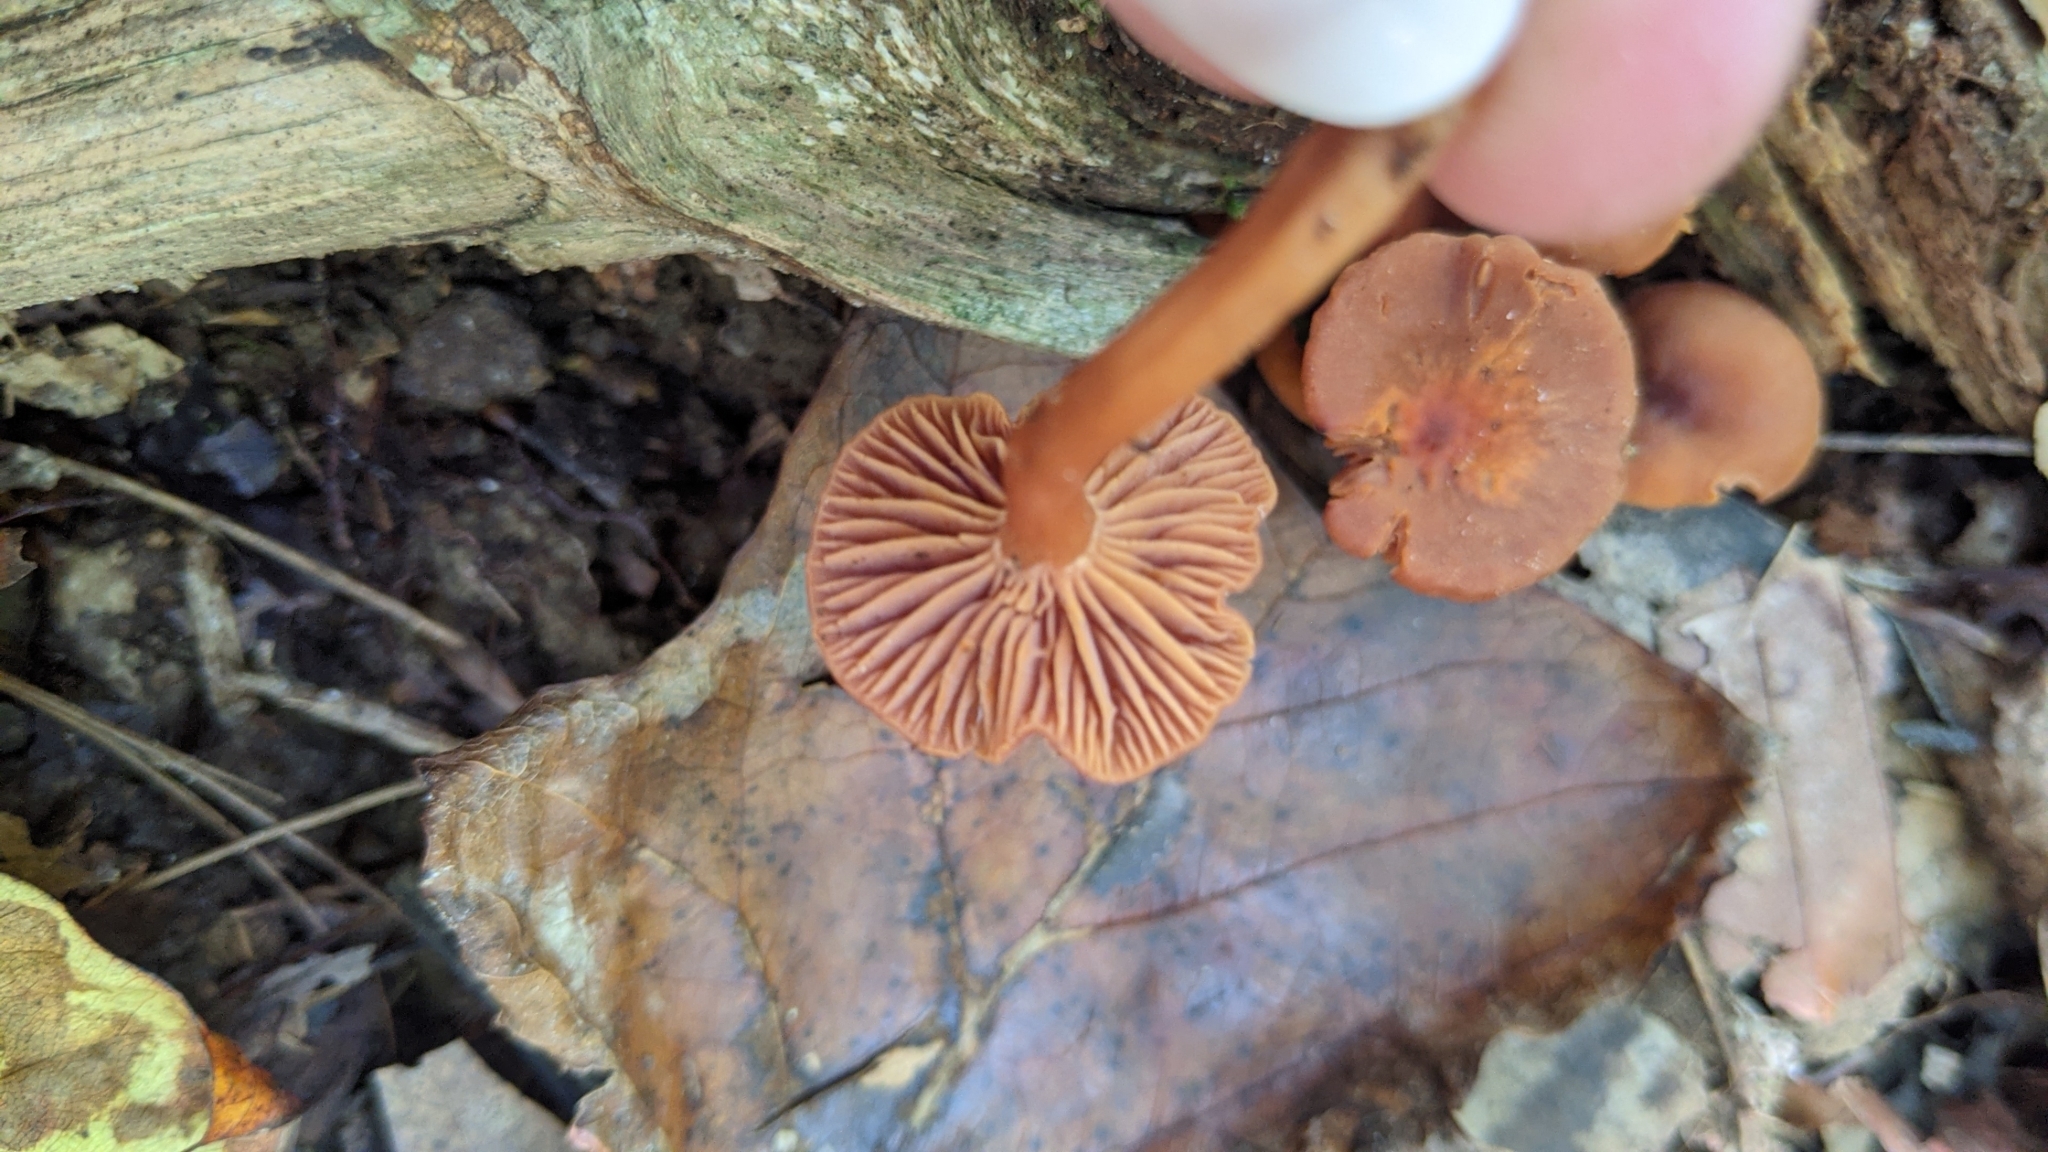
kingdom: Fungi
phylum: Basidiomycota
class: Agaricomycetes
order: Agaricales
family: Hydnangiaceae
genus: Laccaria
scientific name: Laccaria laccata
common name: Deceiver
